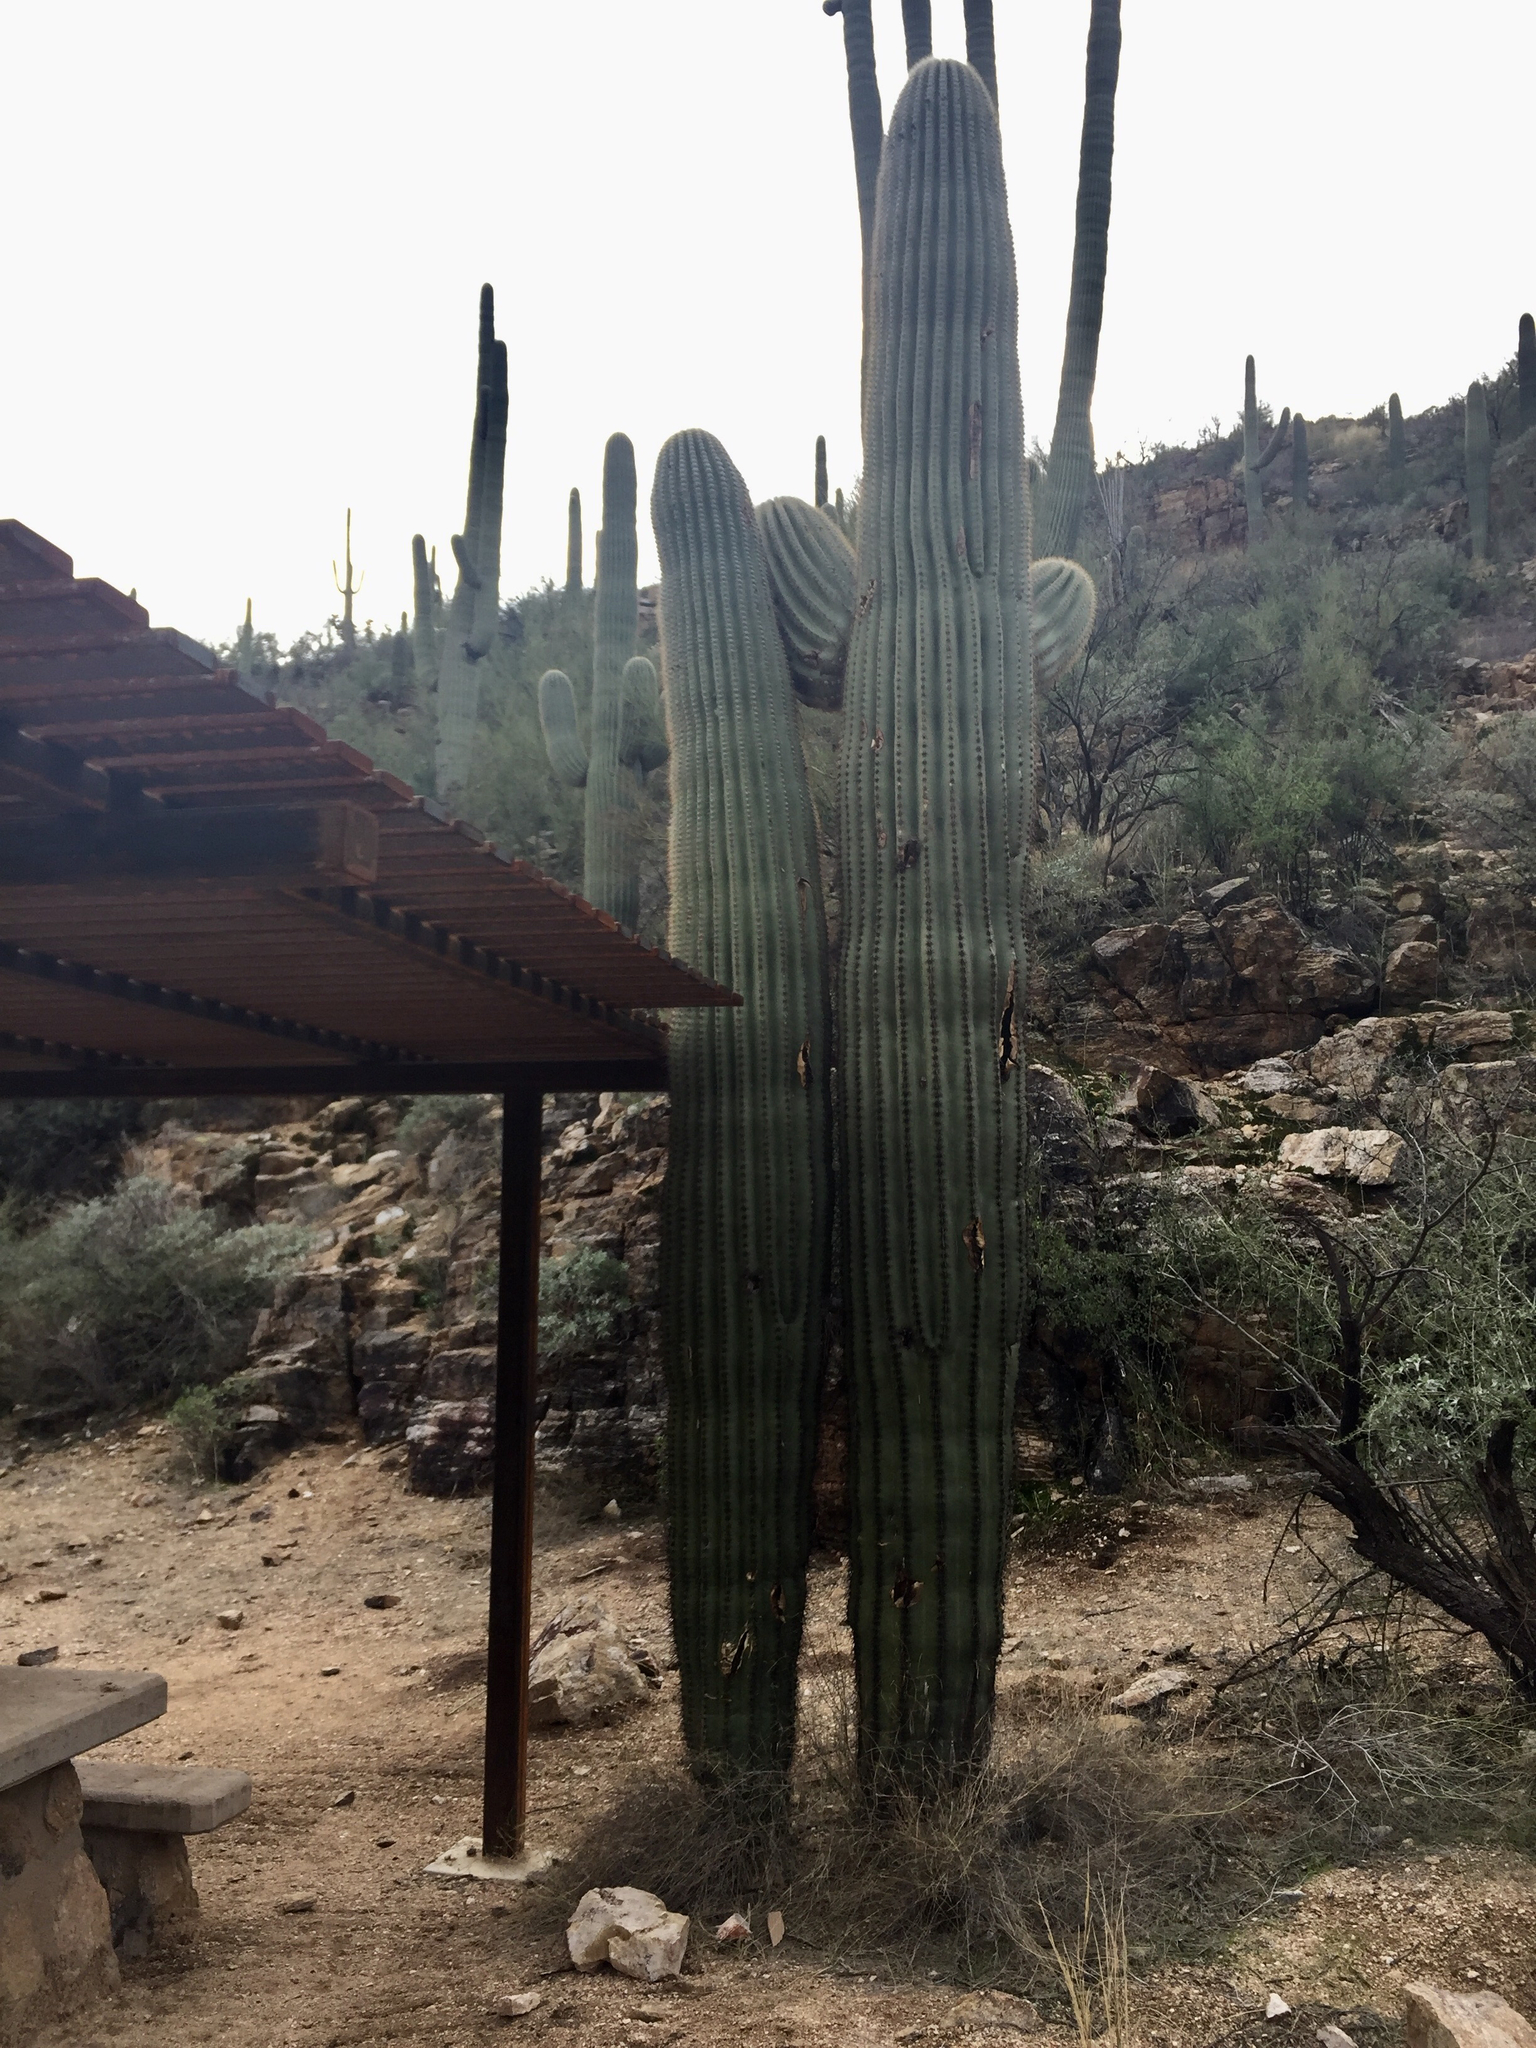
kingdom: Plantae
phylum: Tracheophyta
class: Magnoliopsida
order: Caryophyllales
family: Cactaceae
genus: Carnegiea
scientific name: Carnegiea gigantea
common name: Saguaro
